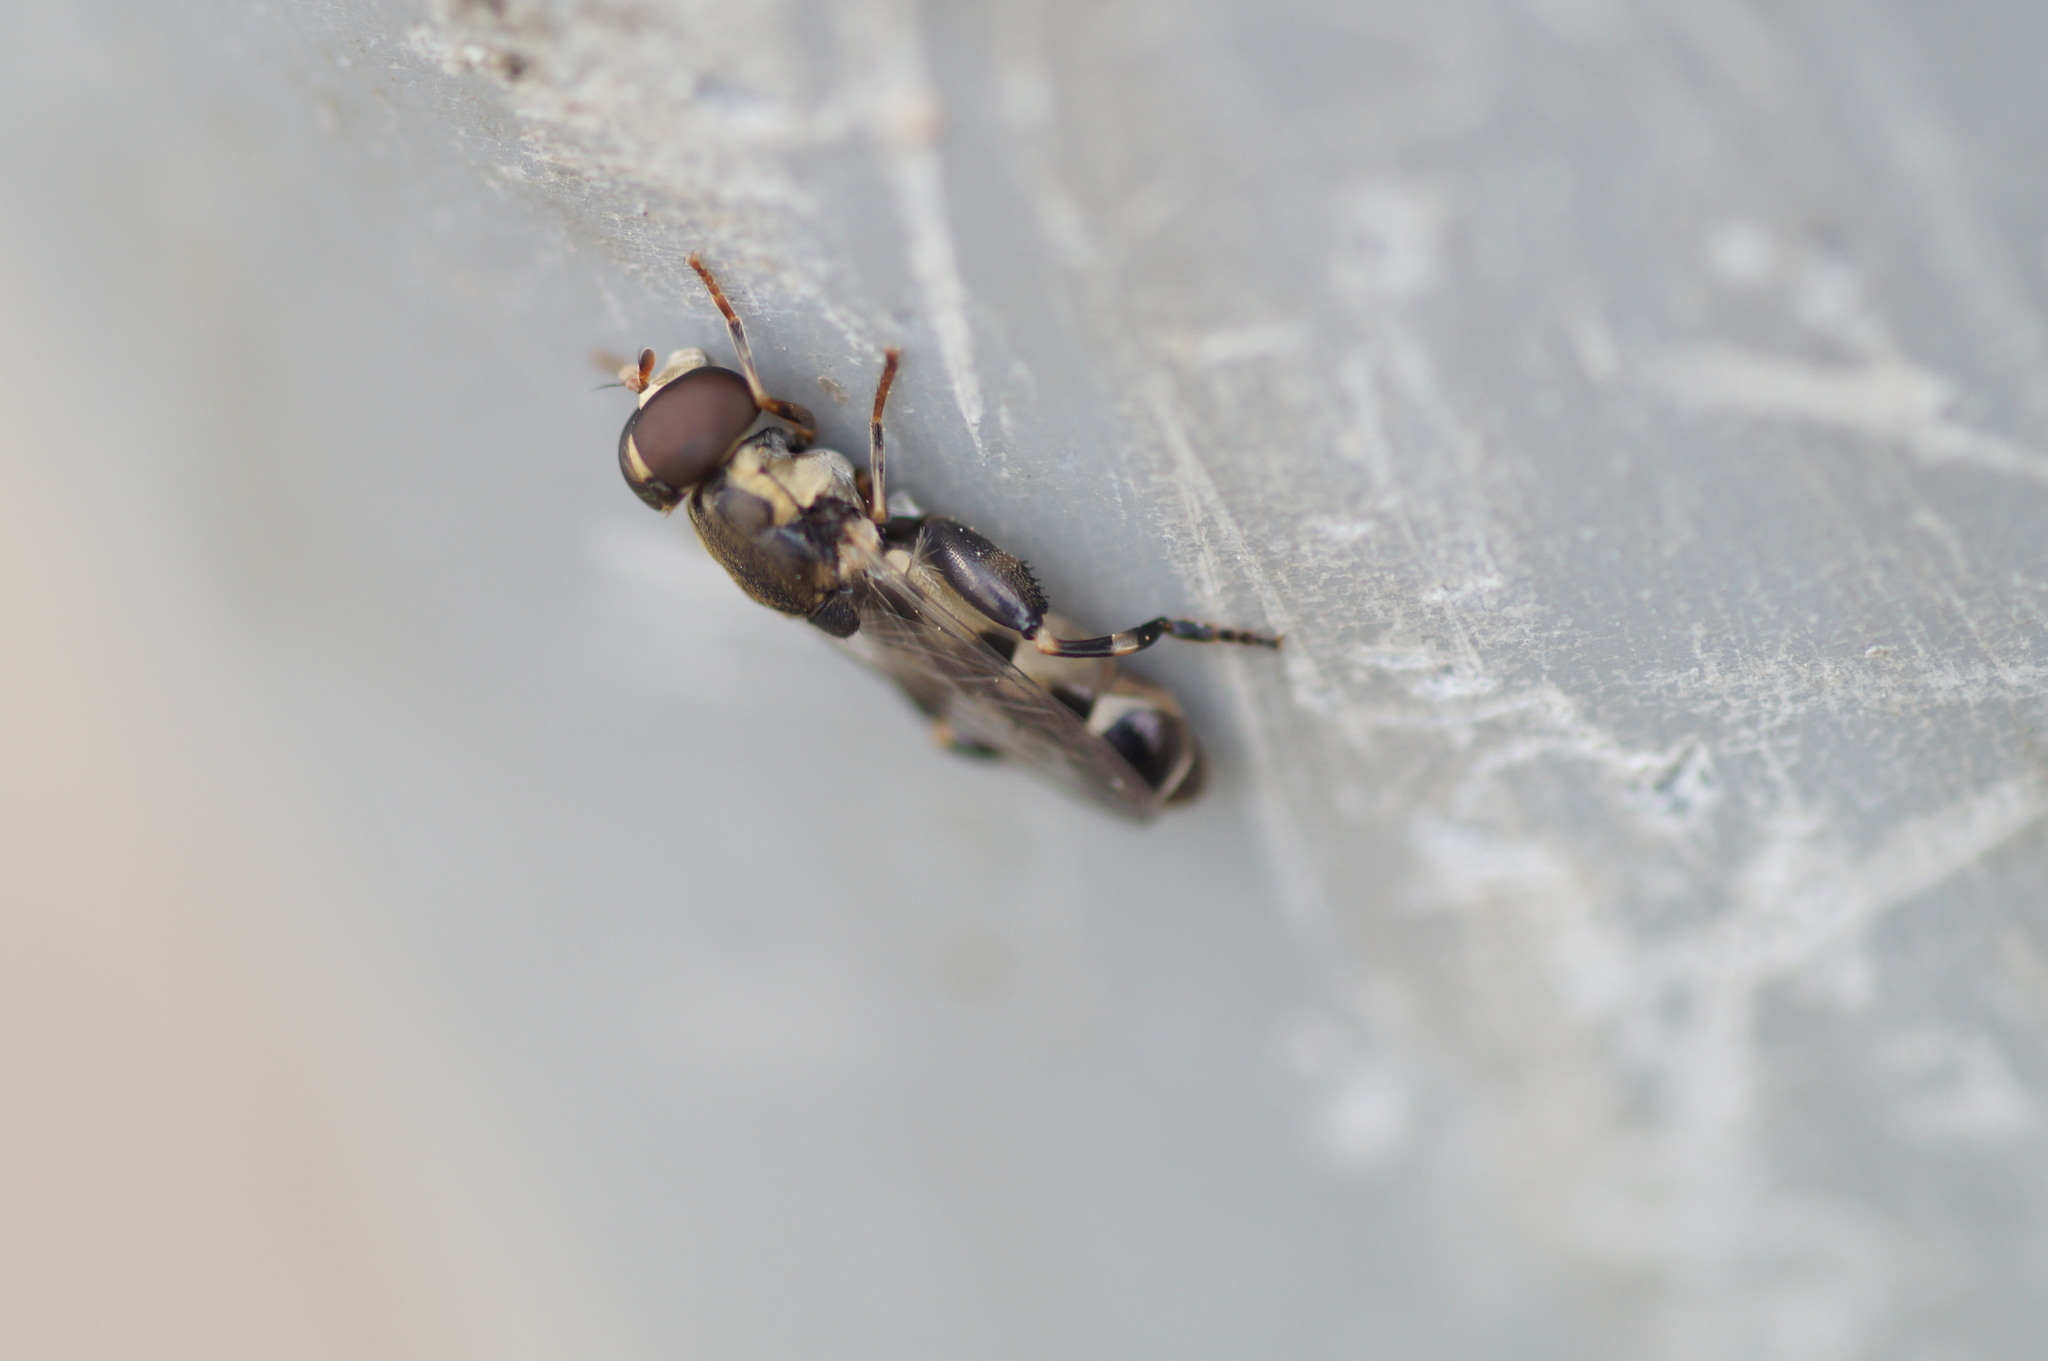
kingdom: Animalia
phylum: Arthropoda
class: Insecta
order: Diptera
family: Syrphidae
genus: Syritta
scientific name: Syritta pipiens
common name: Hover fly
